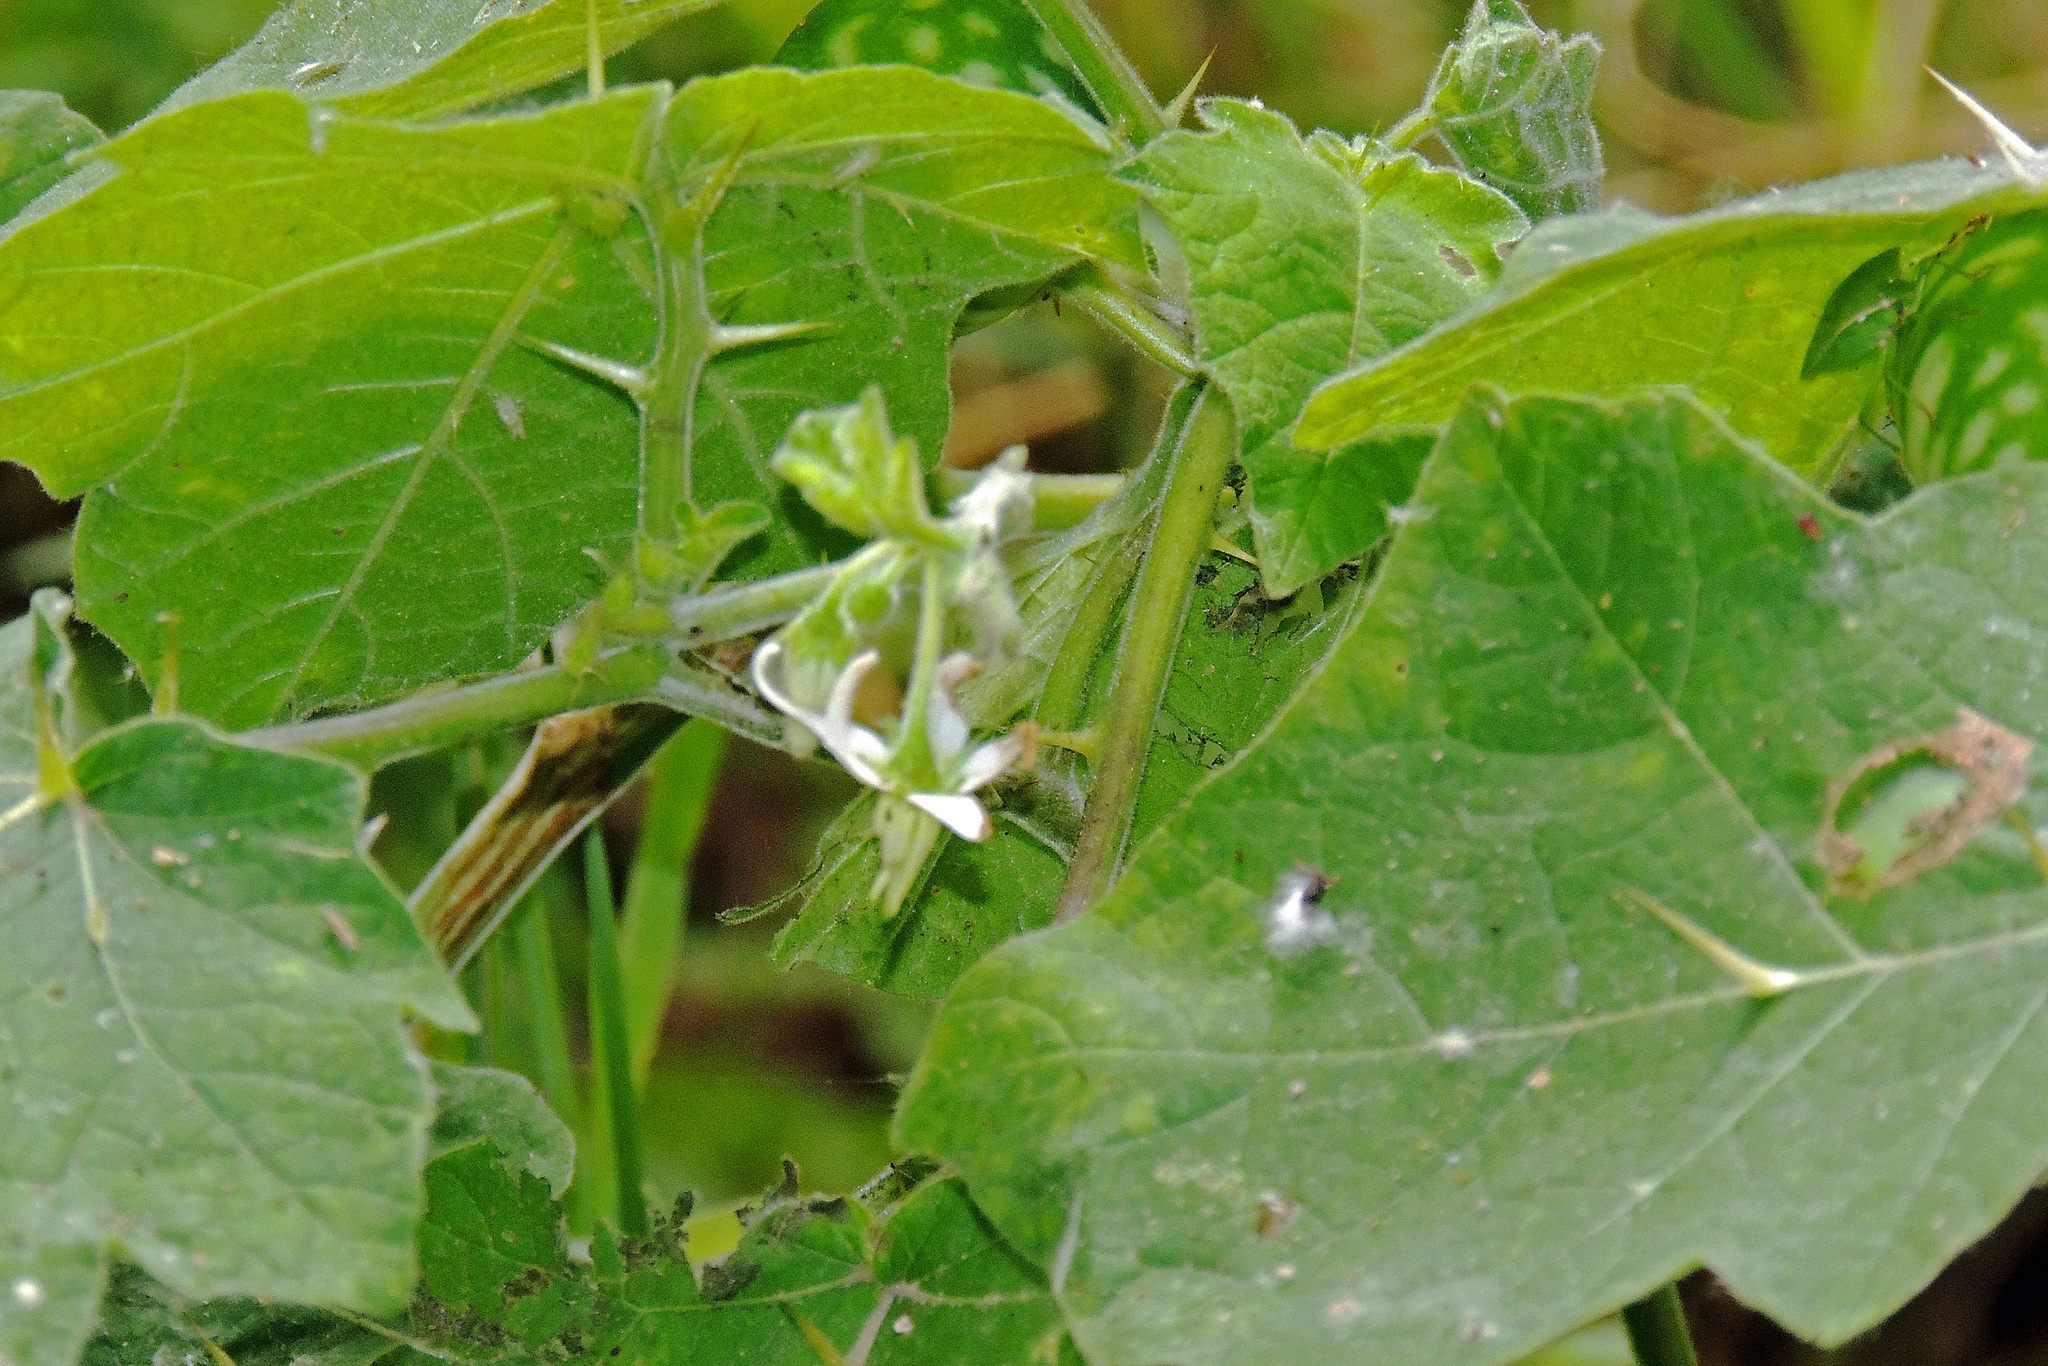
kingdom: Plantae
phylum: Tracheophyta
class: Magnoliopsida
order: Solanales
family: Solanaceae
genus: Solanum
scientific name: Solanum viarum
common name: Tropical soda apple
